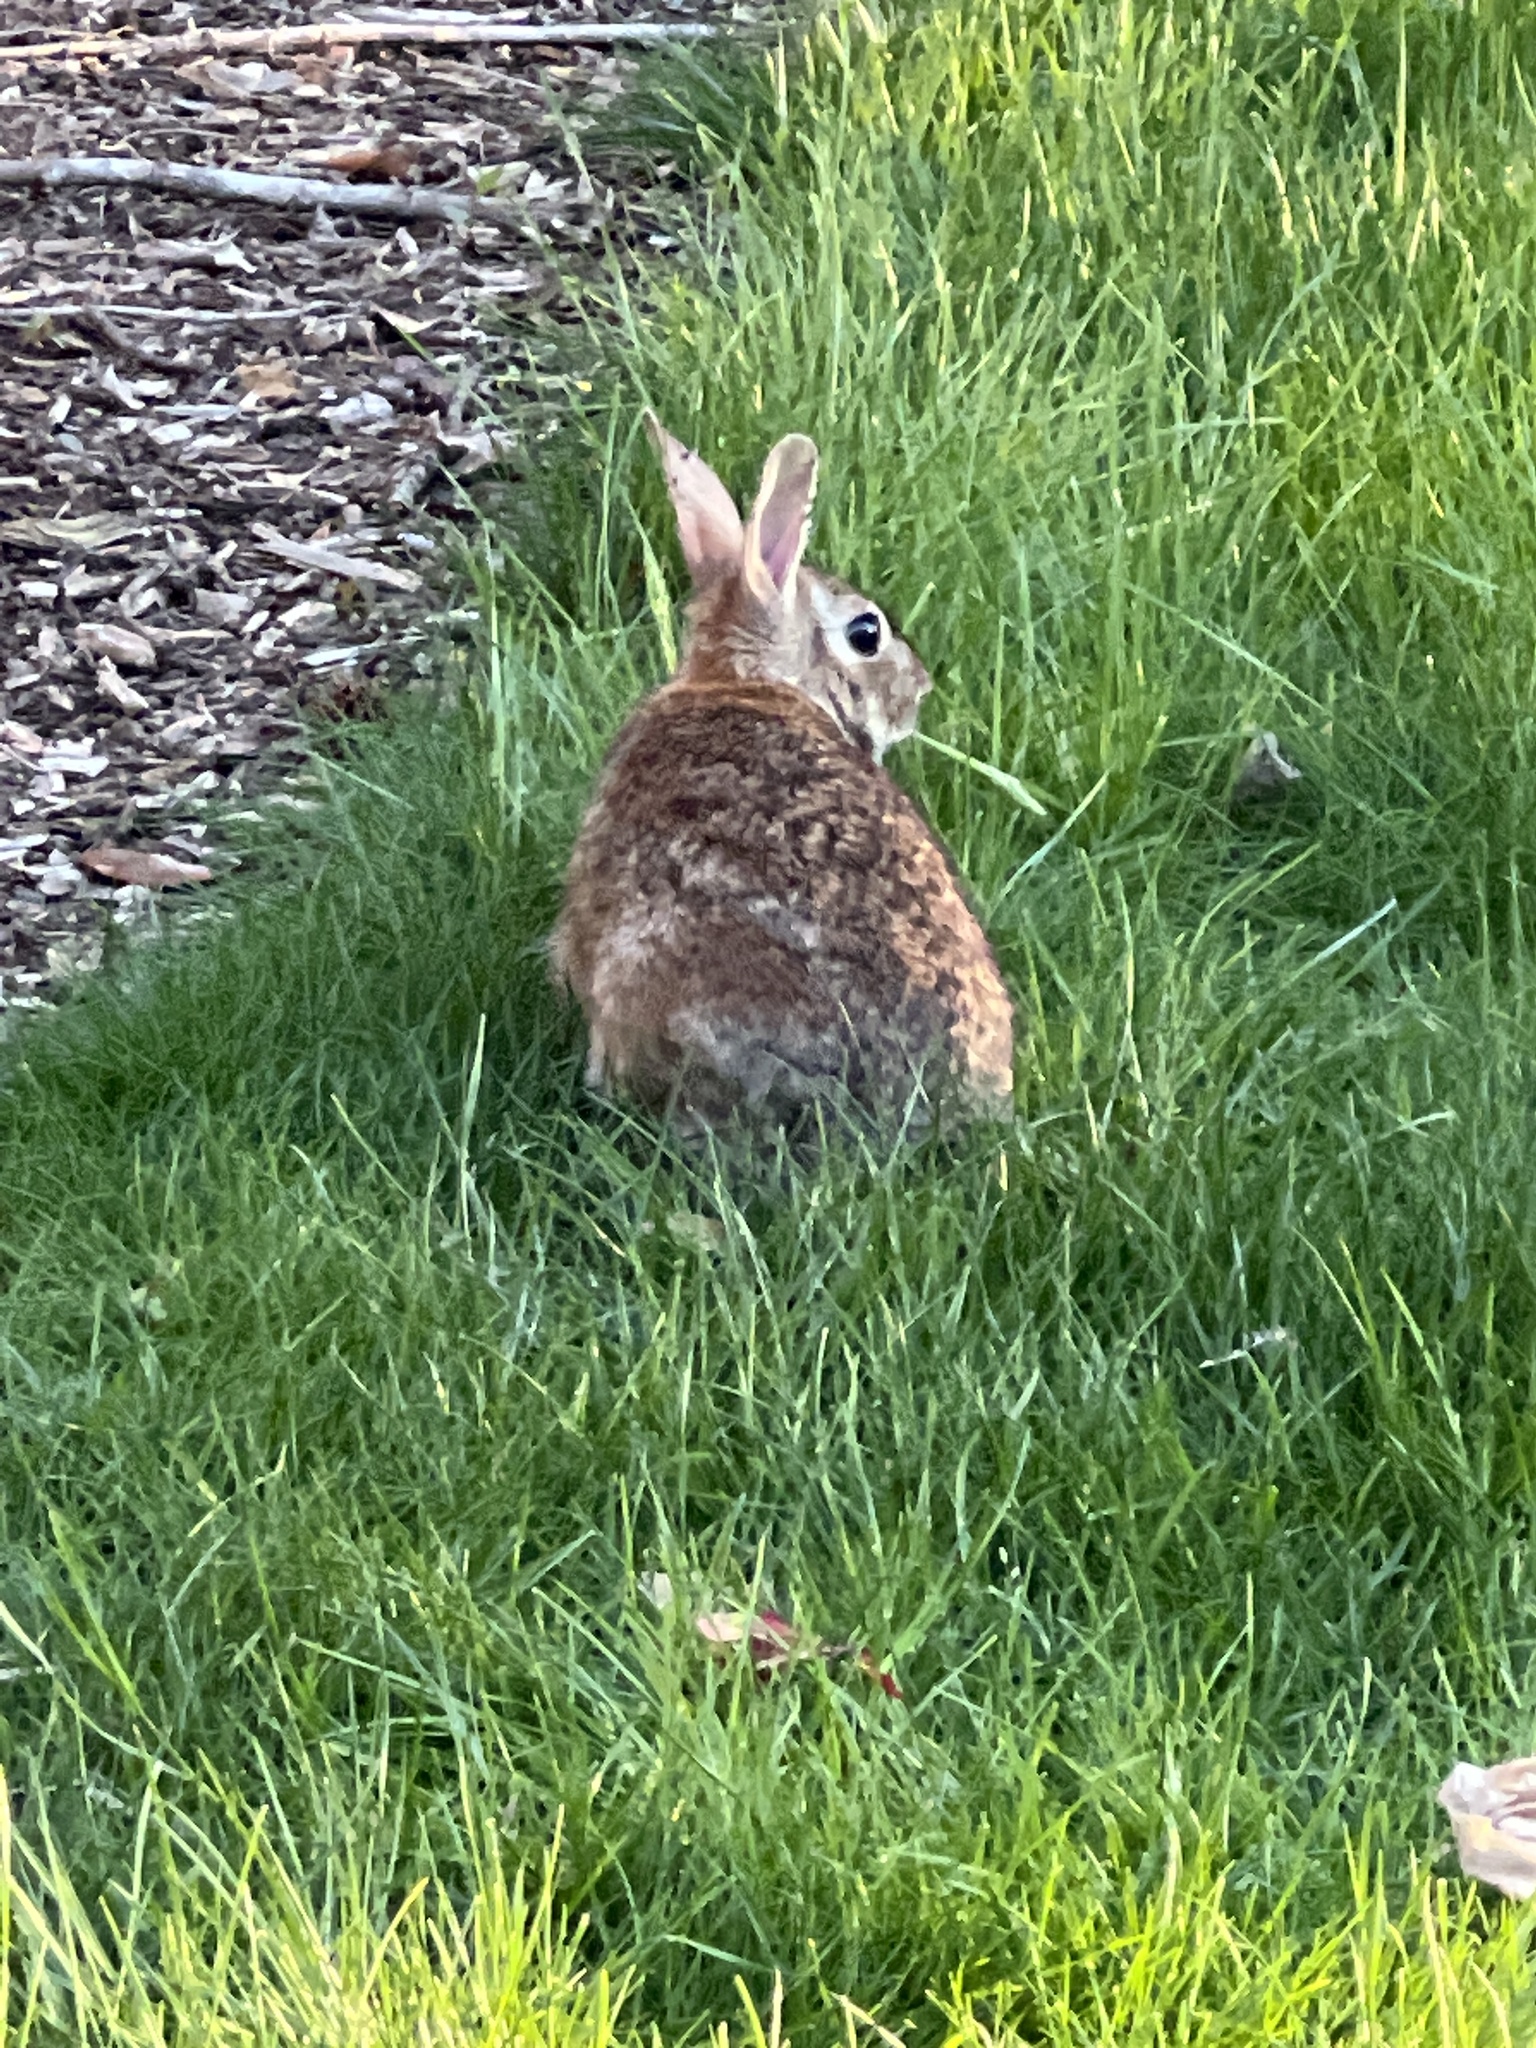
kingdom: Animalia
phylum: Chordata
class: Mammalia
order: Lagomorpha
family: Leporidae
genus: Sylvilagus
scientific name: Sylvilagus floridanus
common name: Eastern cottontail
